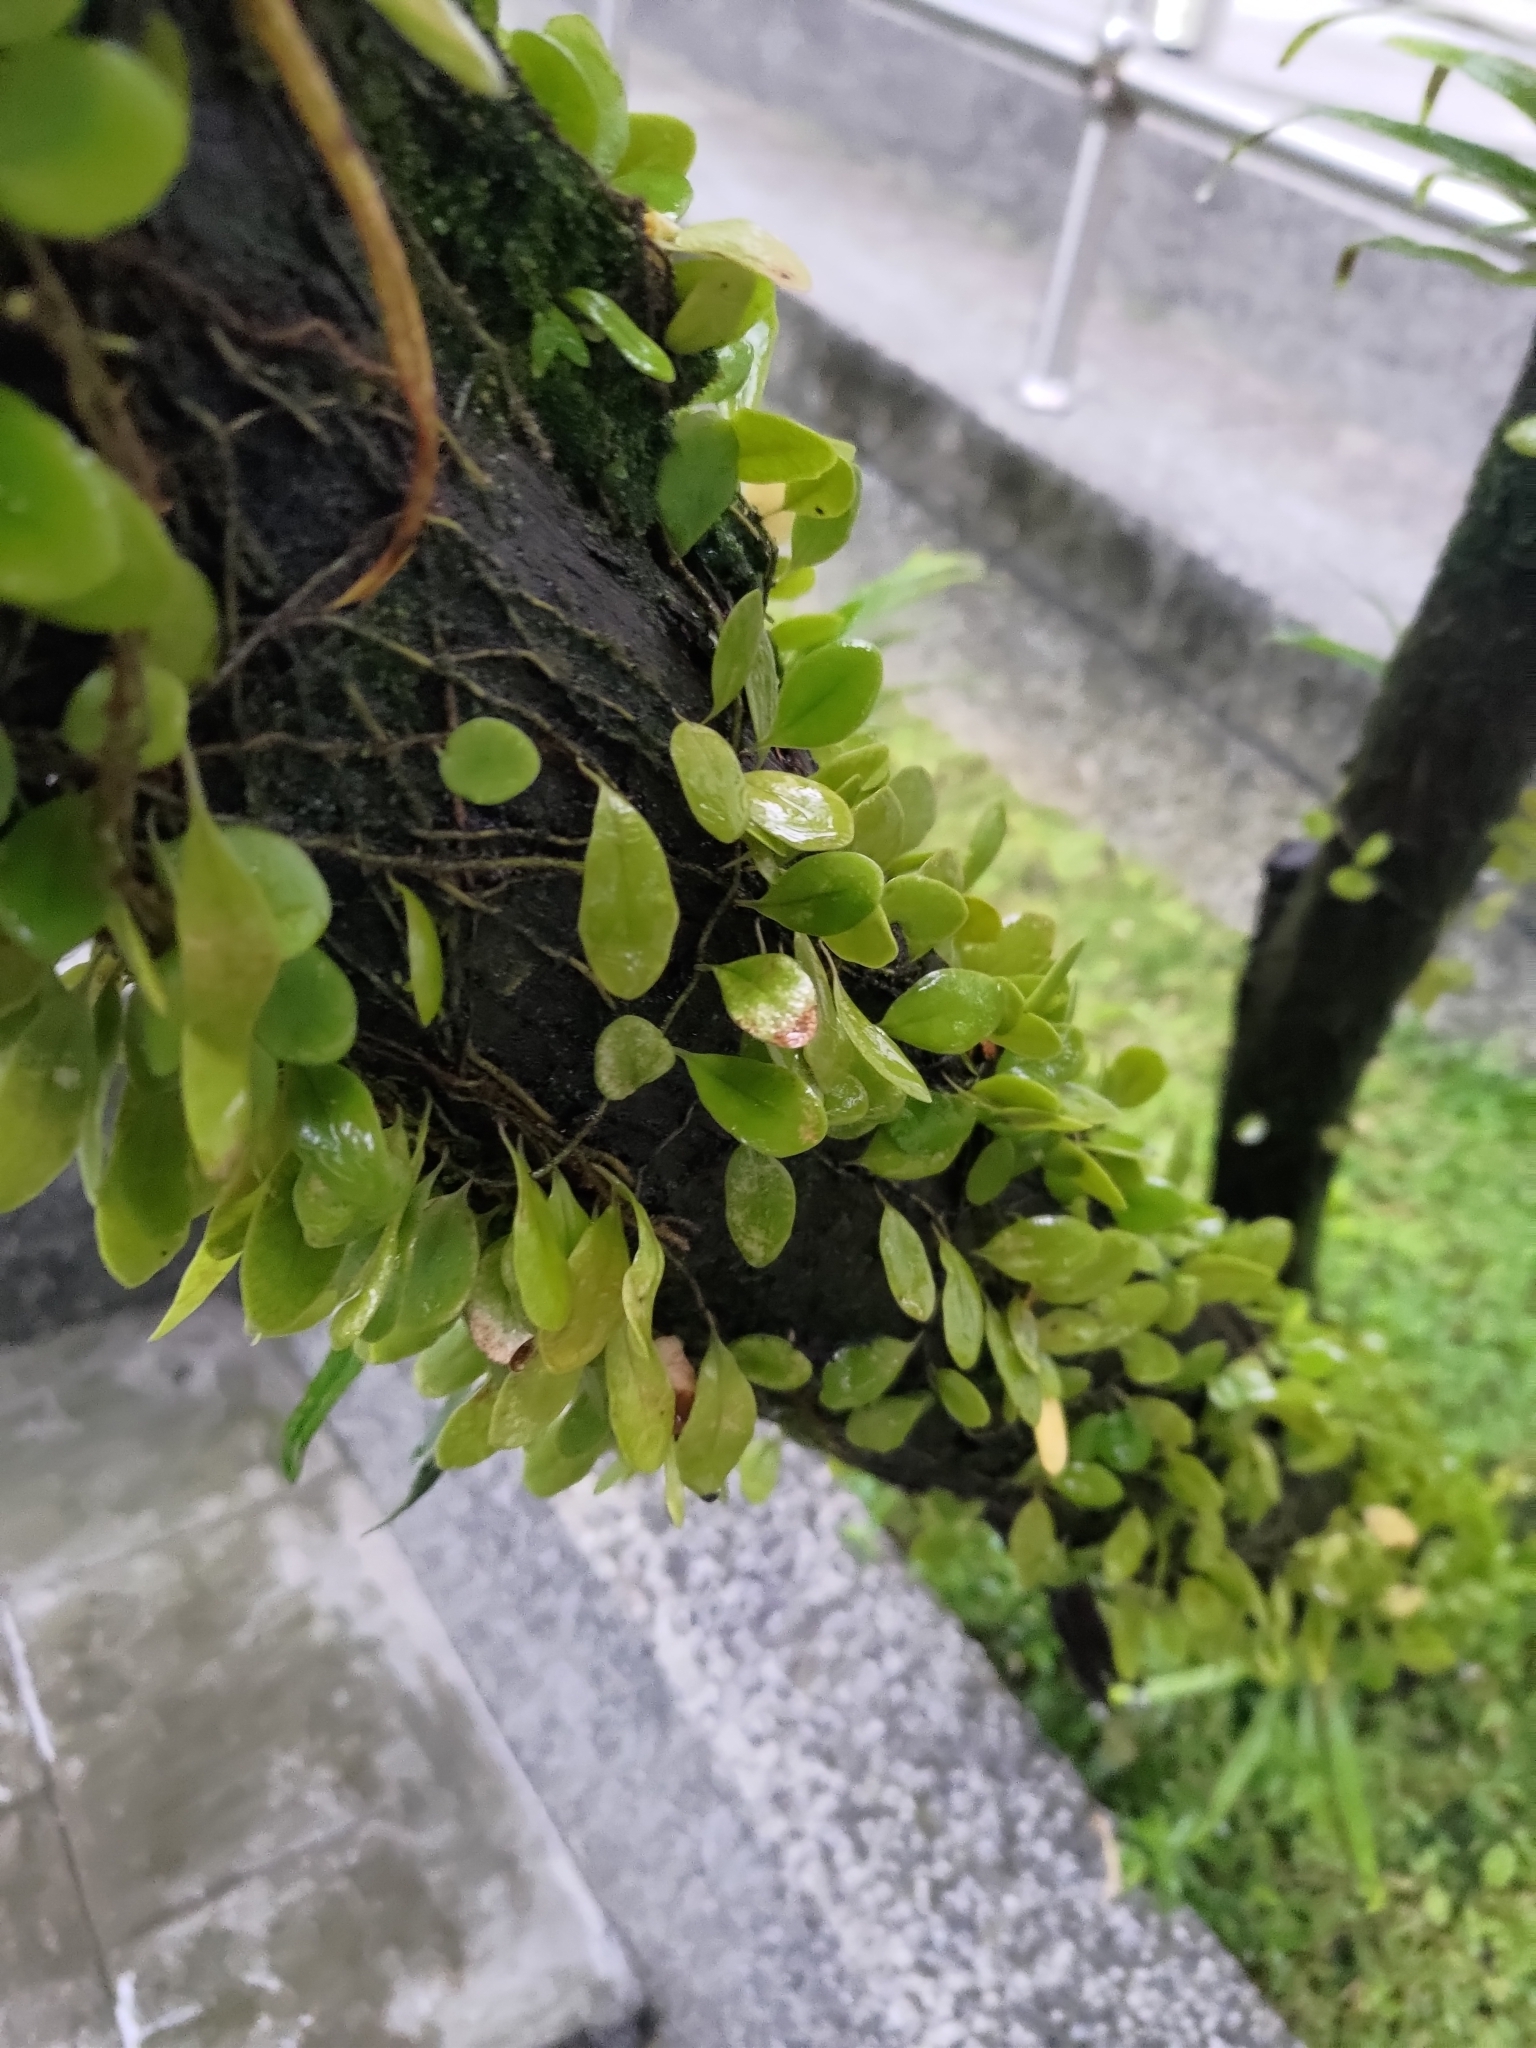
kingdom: Plantae
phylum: Tracheophyta
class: Polypodiopsida
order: Polypodiales
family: Polypodiaceae
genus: Lepisorus
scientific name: Lepisorus microphyllus
